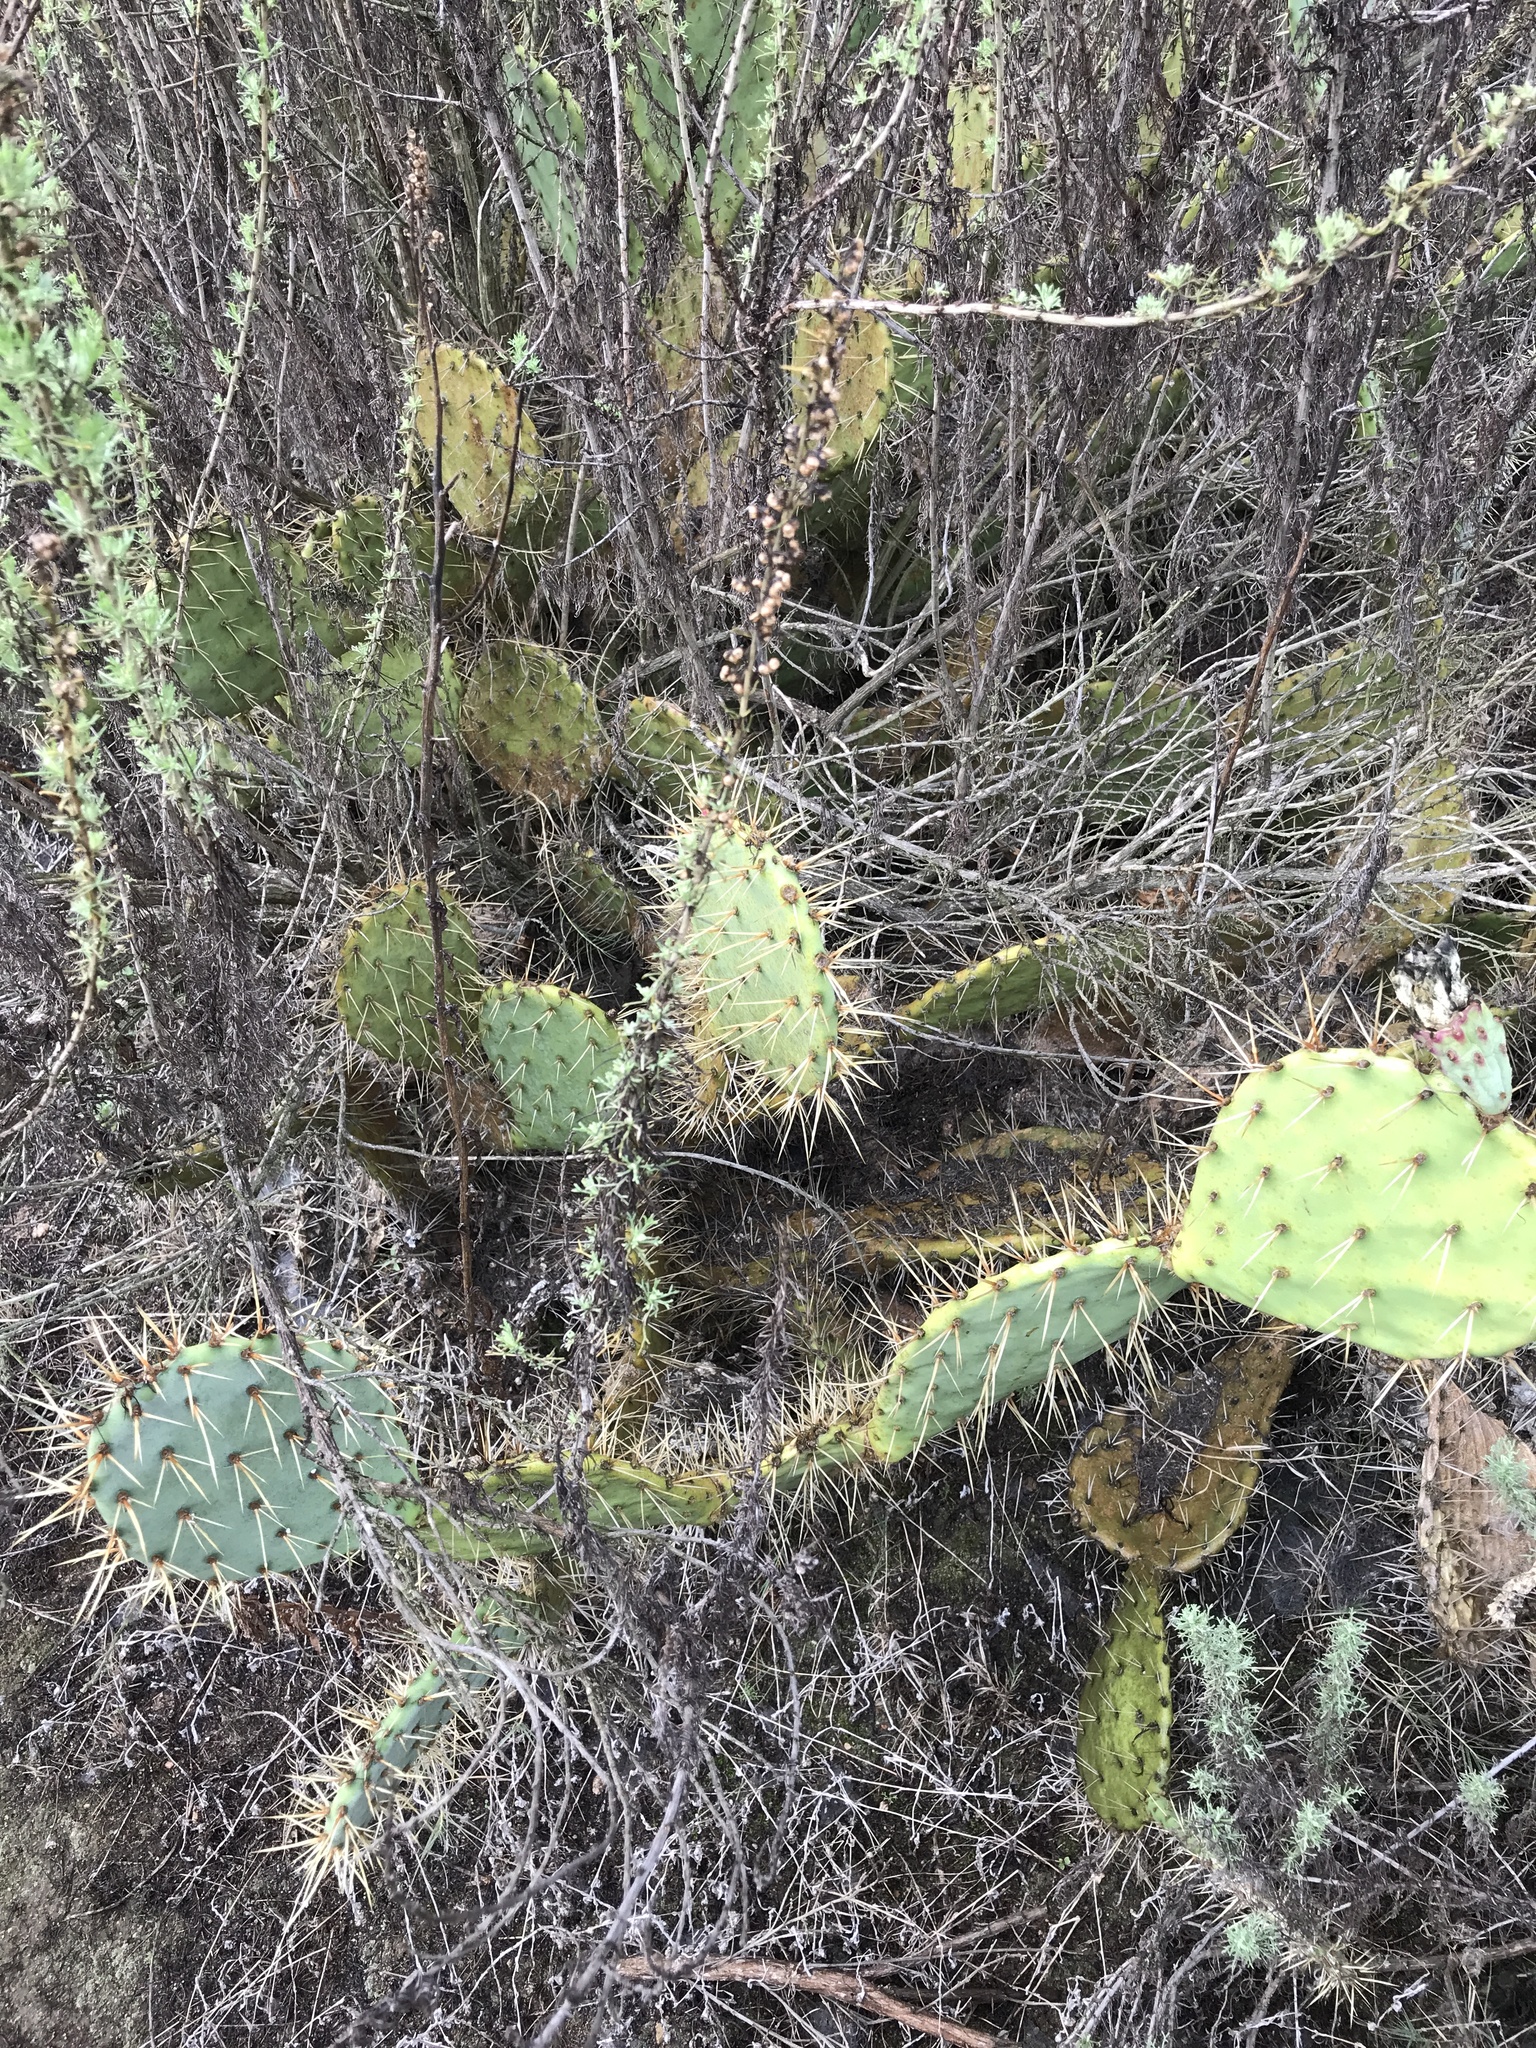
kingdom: Plantae
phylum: Tracheophyta
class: Magnoliopsida
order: Caryophyllales
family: Cactaceae
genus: Opuntia
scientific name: Opuntia littoralis
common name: Coastal prickly-pear
